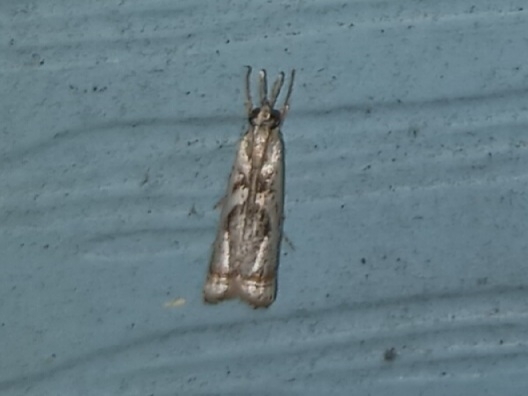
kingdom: Animalia
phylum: Arthropoda
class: Insecta
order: Lepidoptera
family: Crambidae
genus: Microcrambus
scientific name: Microcrambus elegans
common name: Elegant grass-veneer
